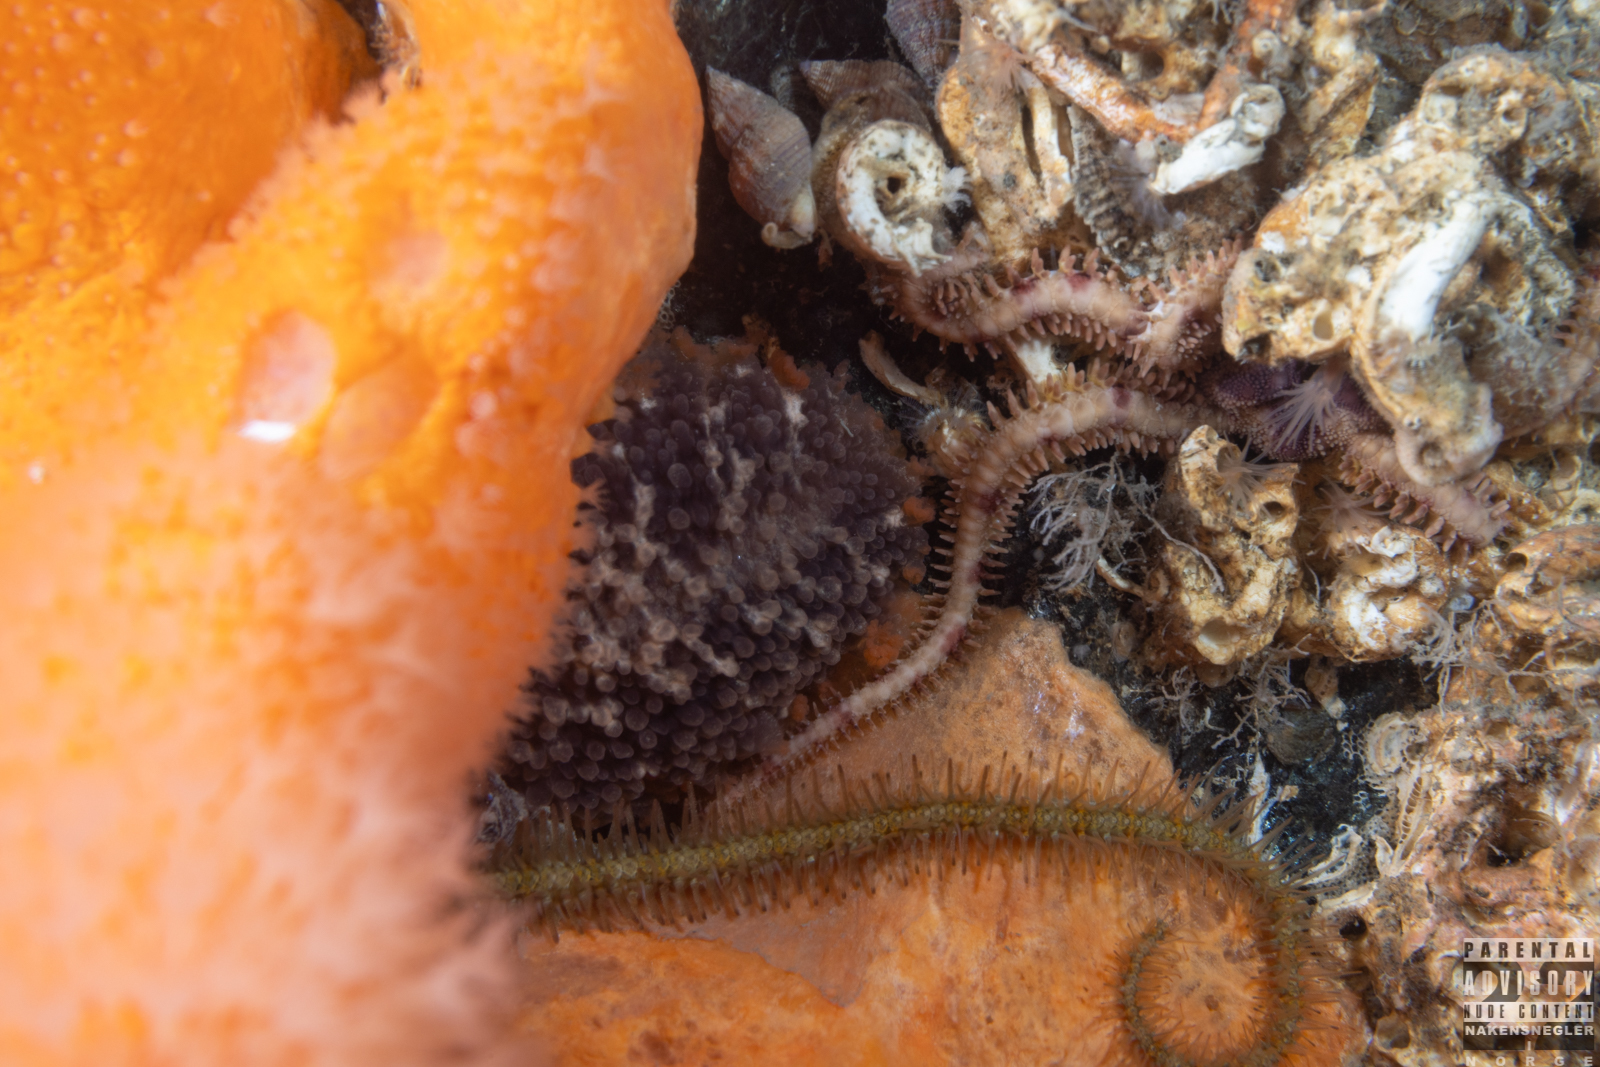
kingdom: Animalia
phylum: Mollusca
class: Gastropoda
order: Nudibranchia
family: Tritoniidae
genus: Tritonia
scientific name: Tritonia hombergii
